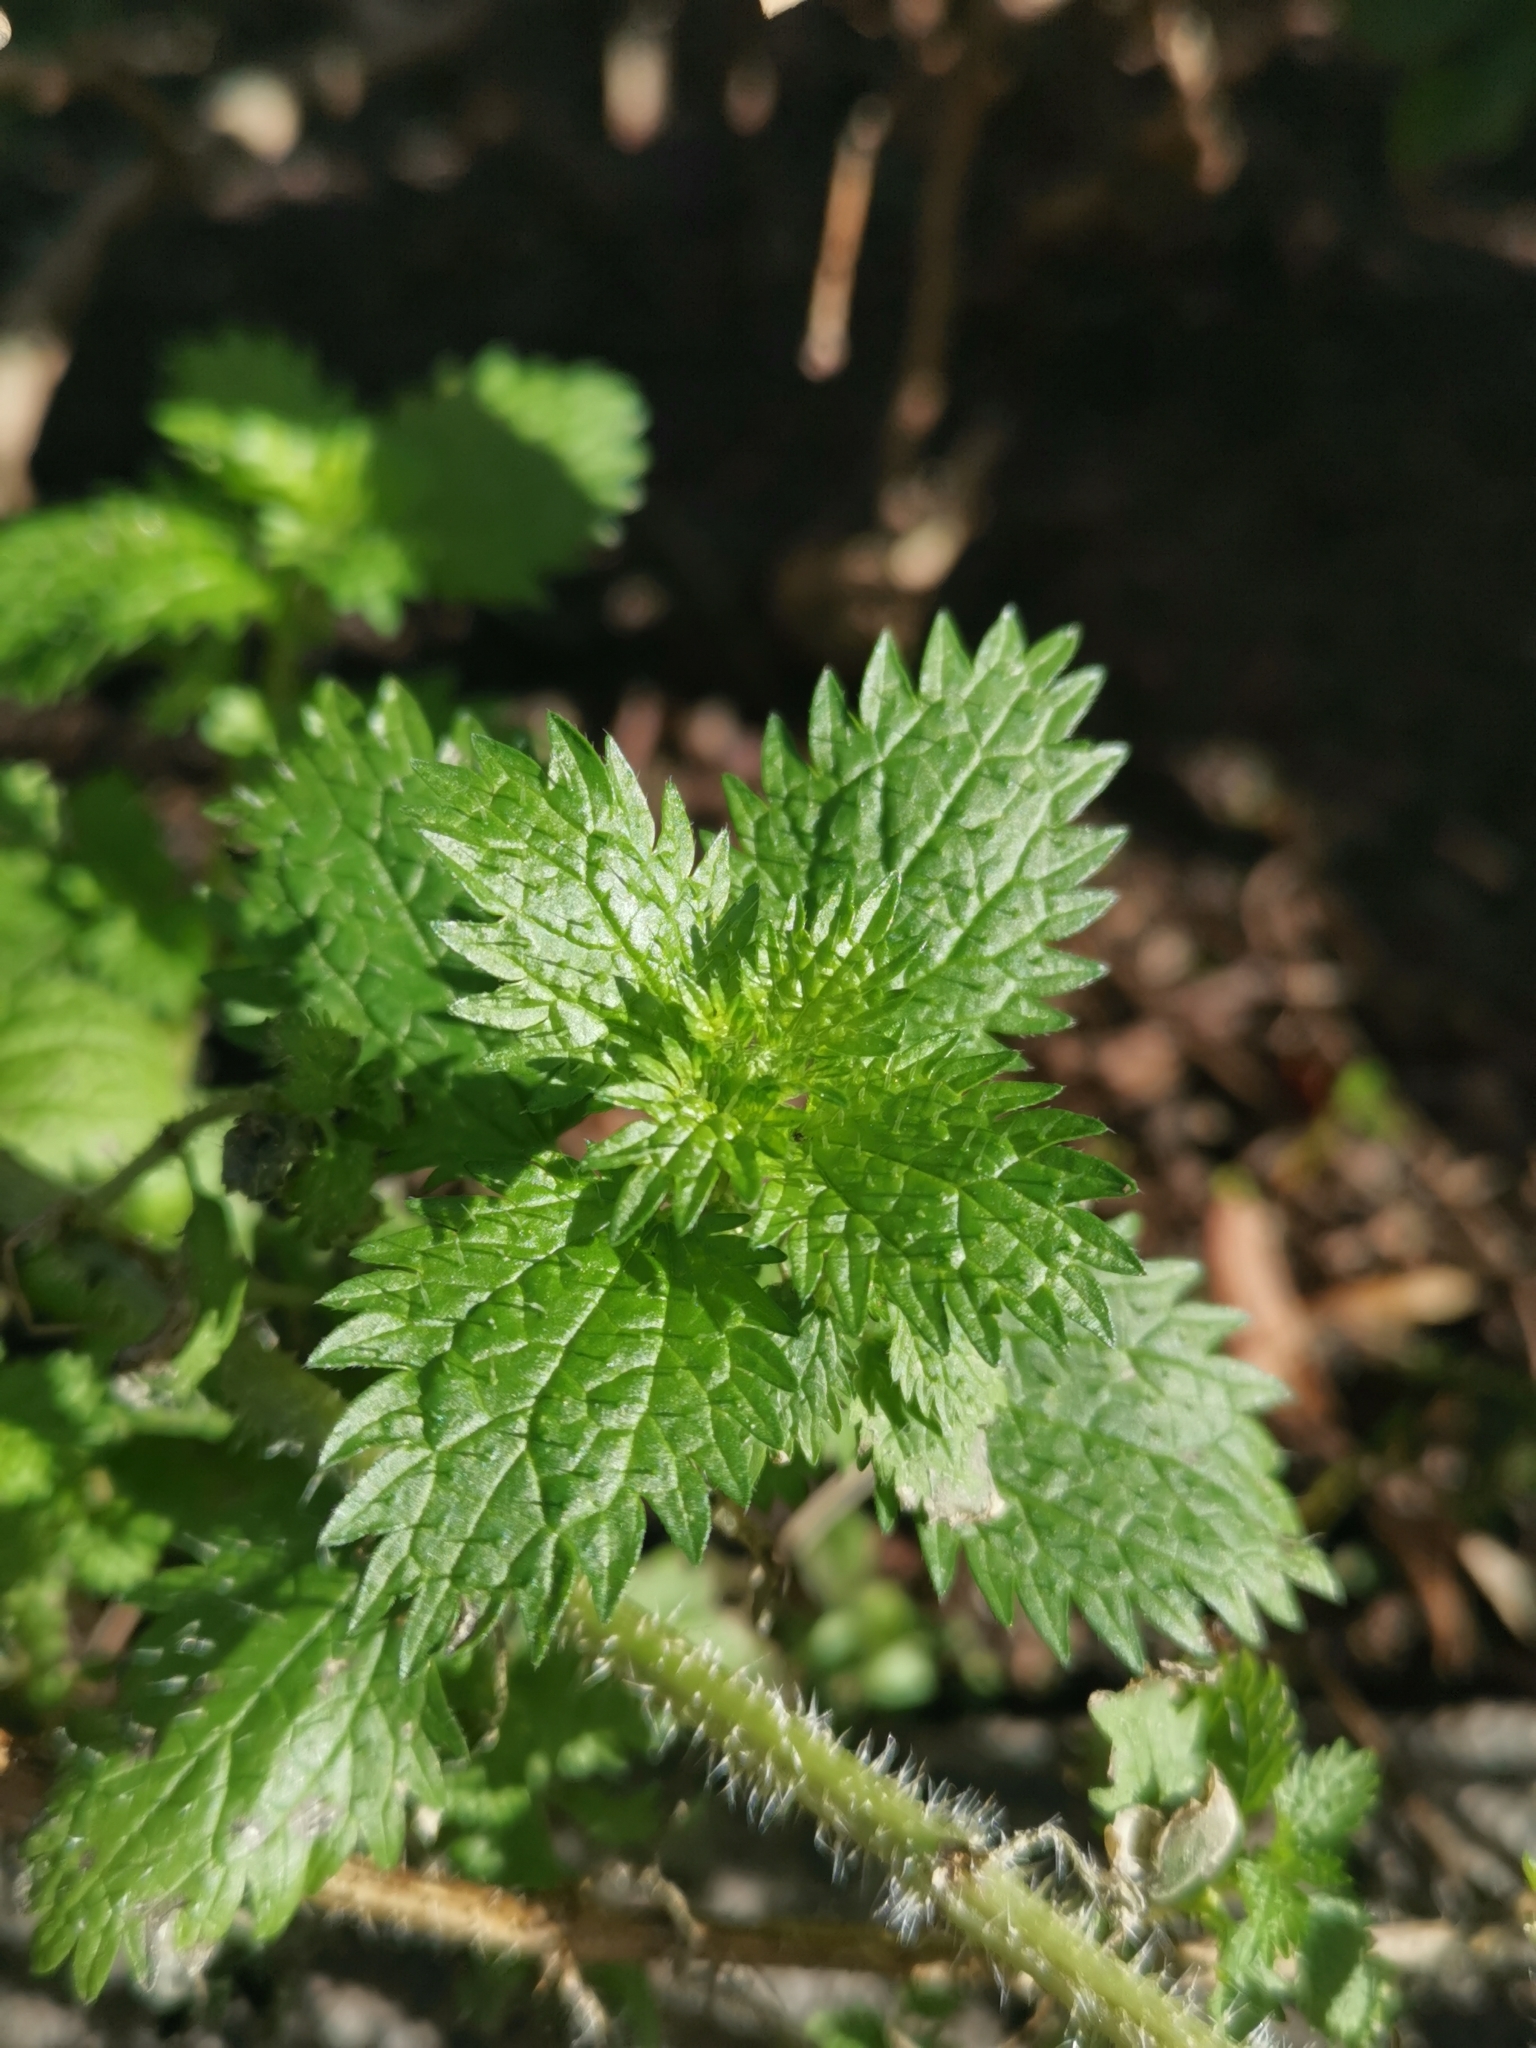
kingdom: Plantae
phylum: Tracheophyta
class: Magnoliopsida
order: Rosales
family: Urticaceae
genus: Urtica
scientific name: Urtica urens
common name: Dwarf nettle
